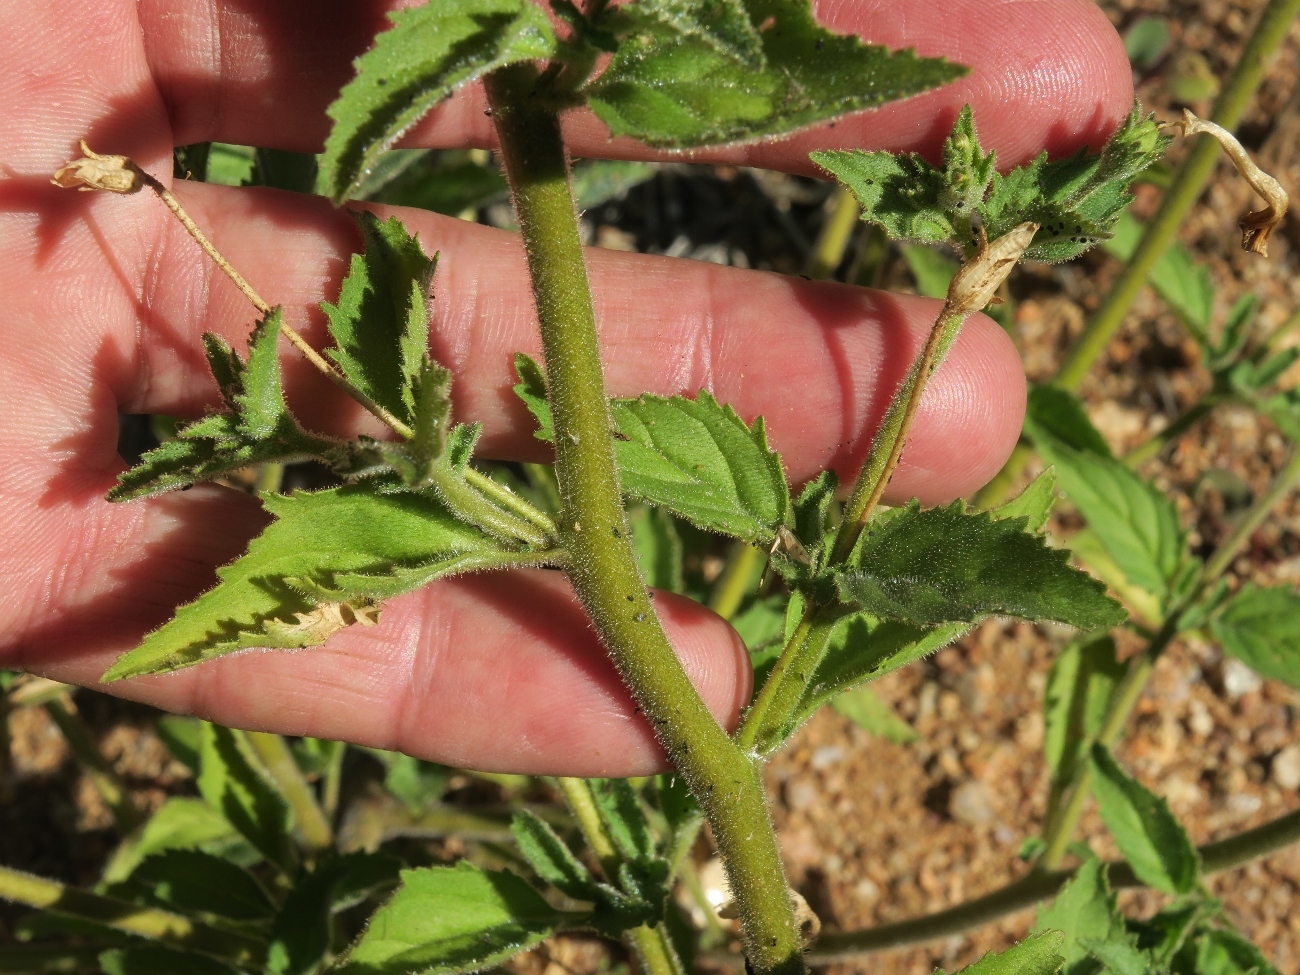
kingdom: Plantae
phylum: Tracheophyta
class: Magnoliopsida
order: Lamiales
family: Scrophulariaceae
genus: Jamesbrittenia
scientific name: Jamesbrittenia racemosa
